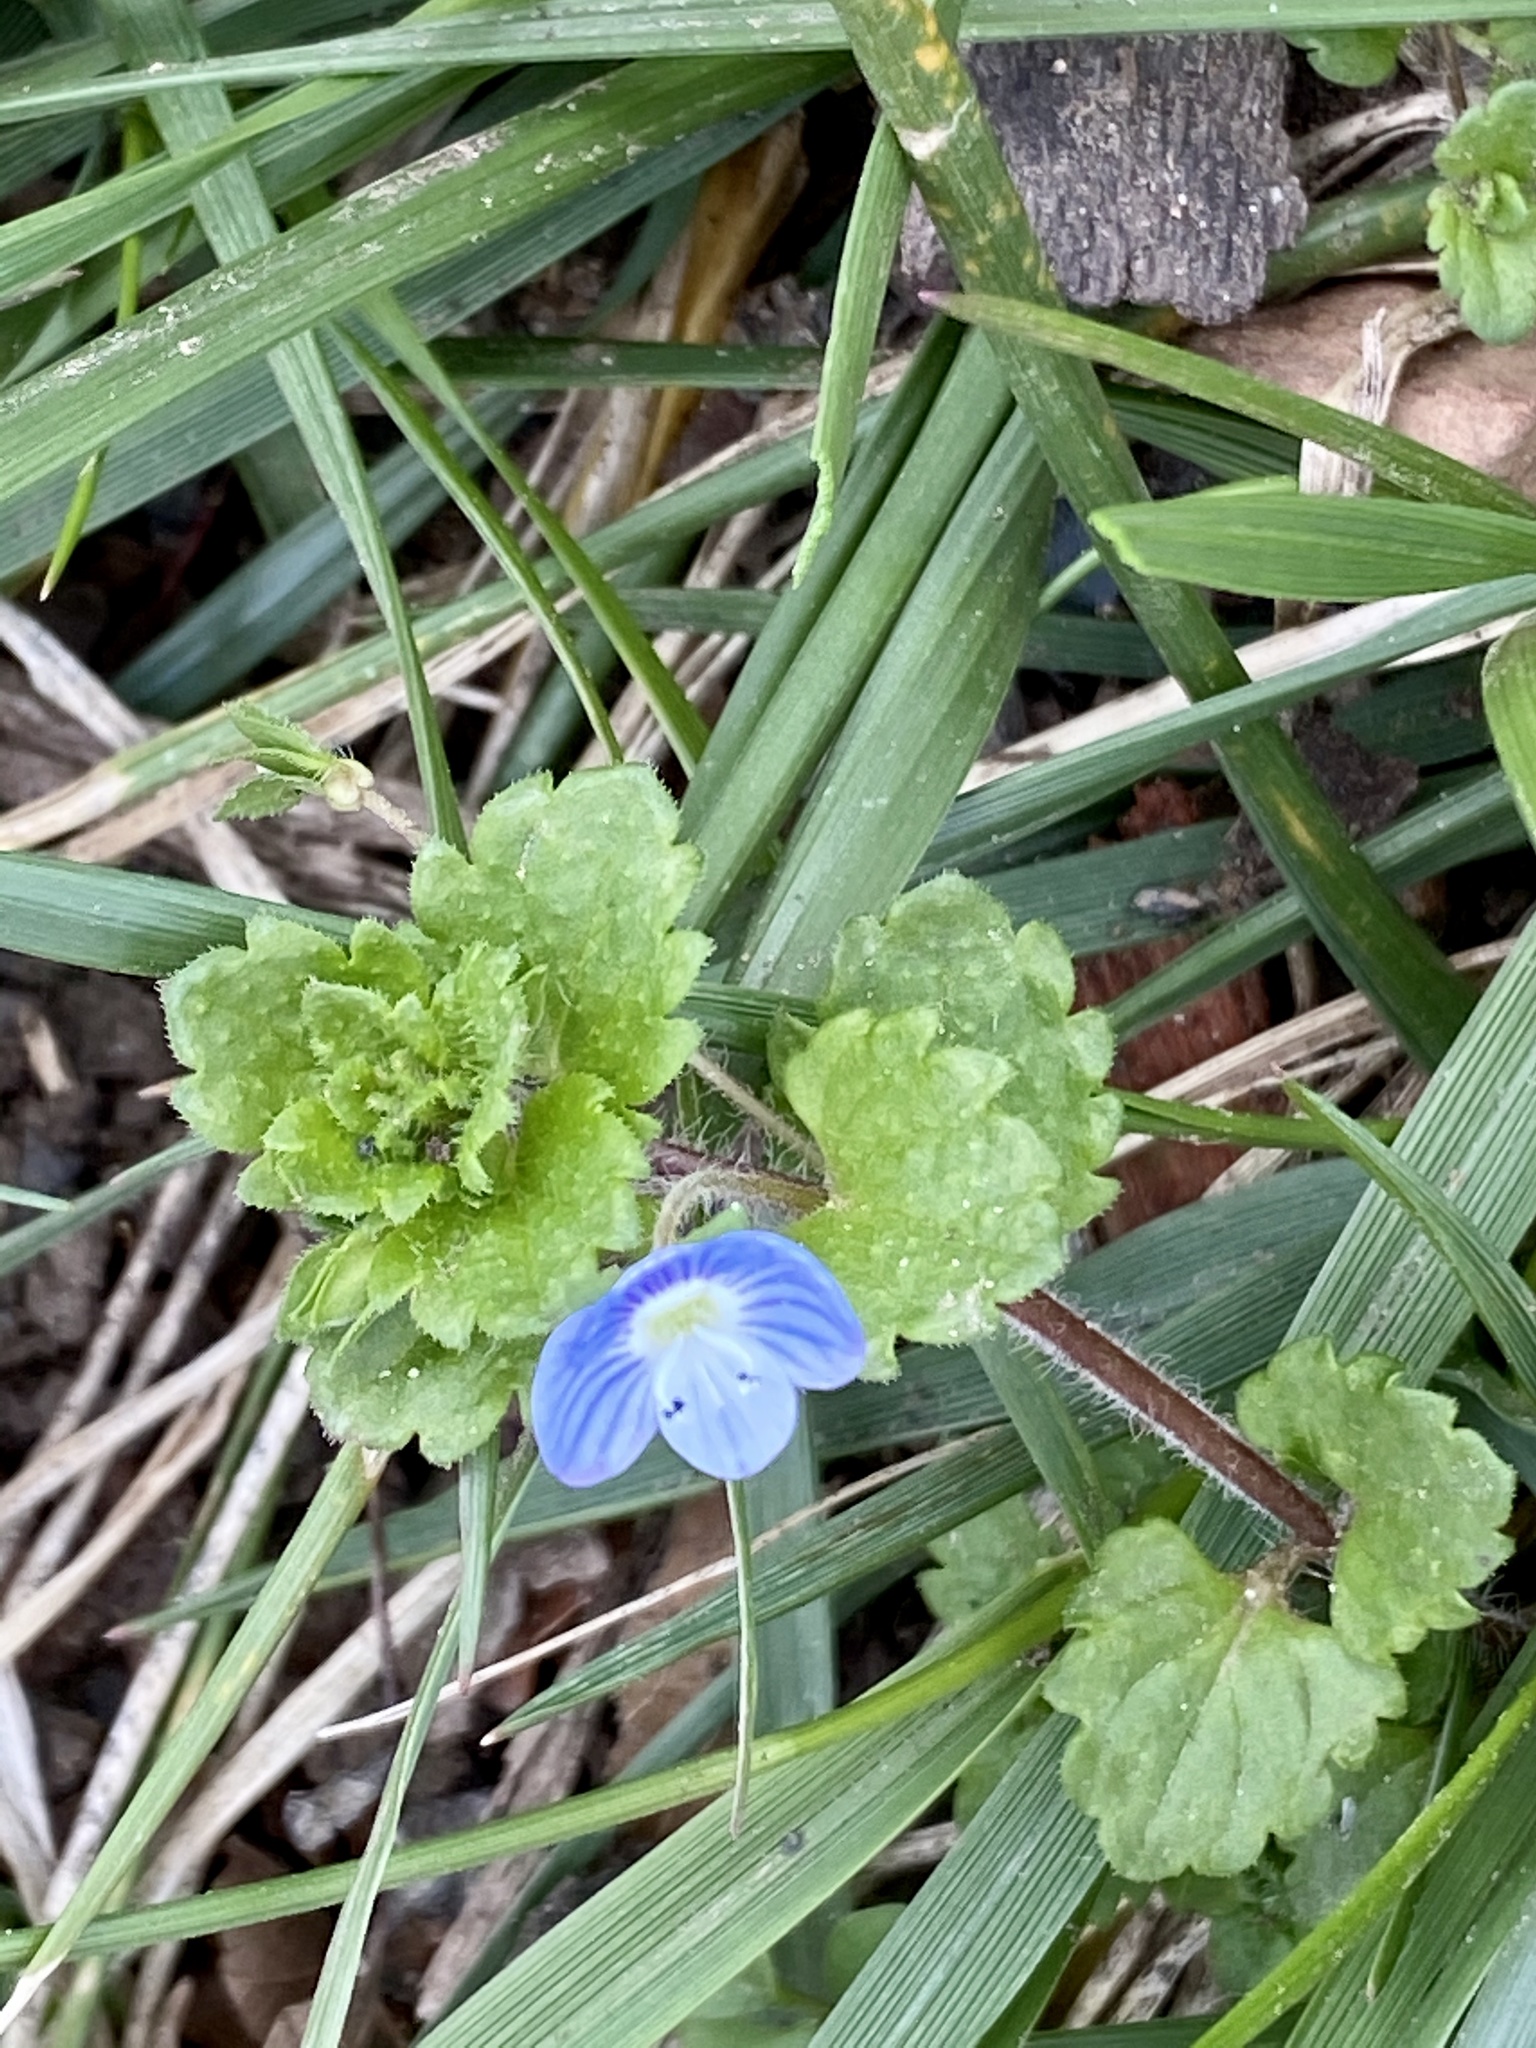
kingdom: Plantae
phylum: Tracheophyta
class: Magnoliopsida
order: Lamiales
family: Plantaginaceae
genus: Veronica
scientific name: Veronica persica
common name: Common field-speedwell
